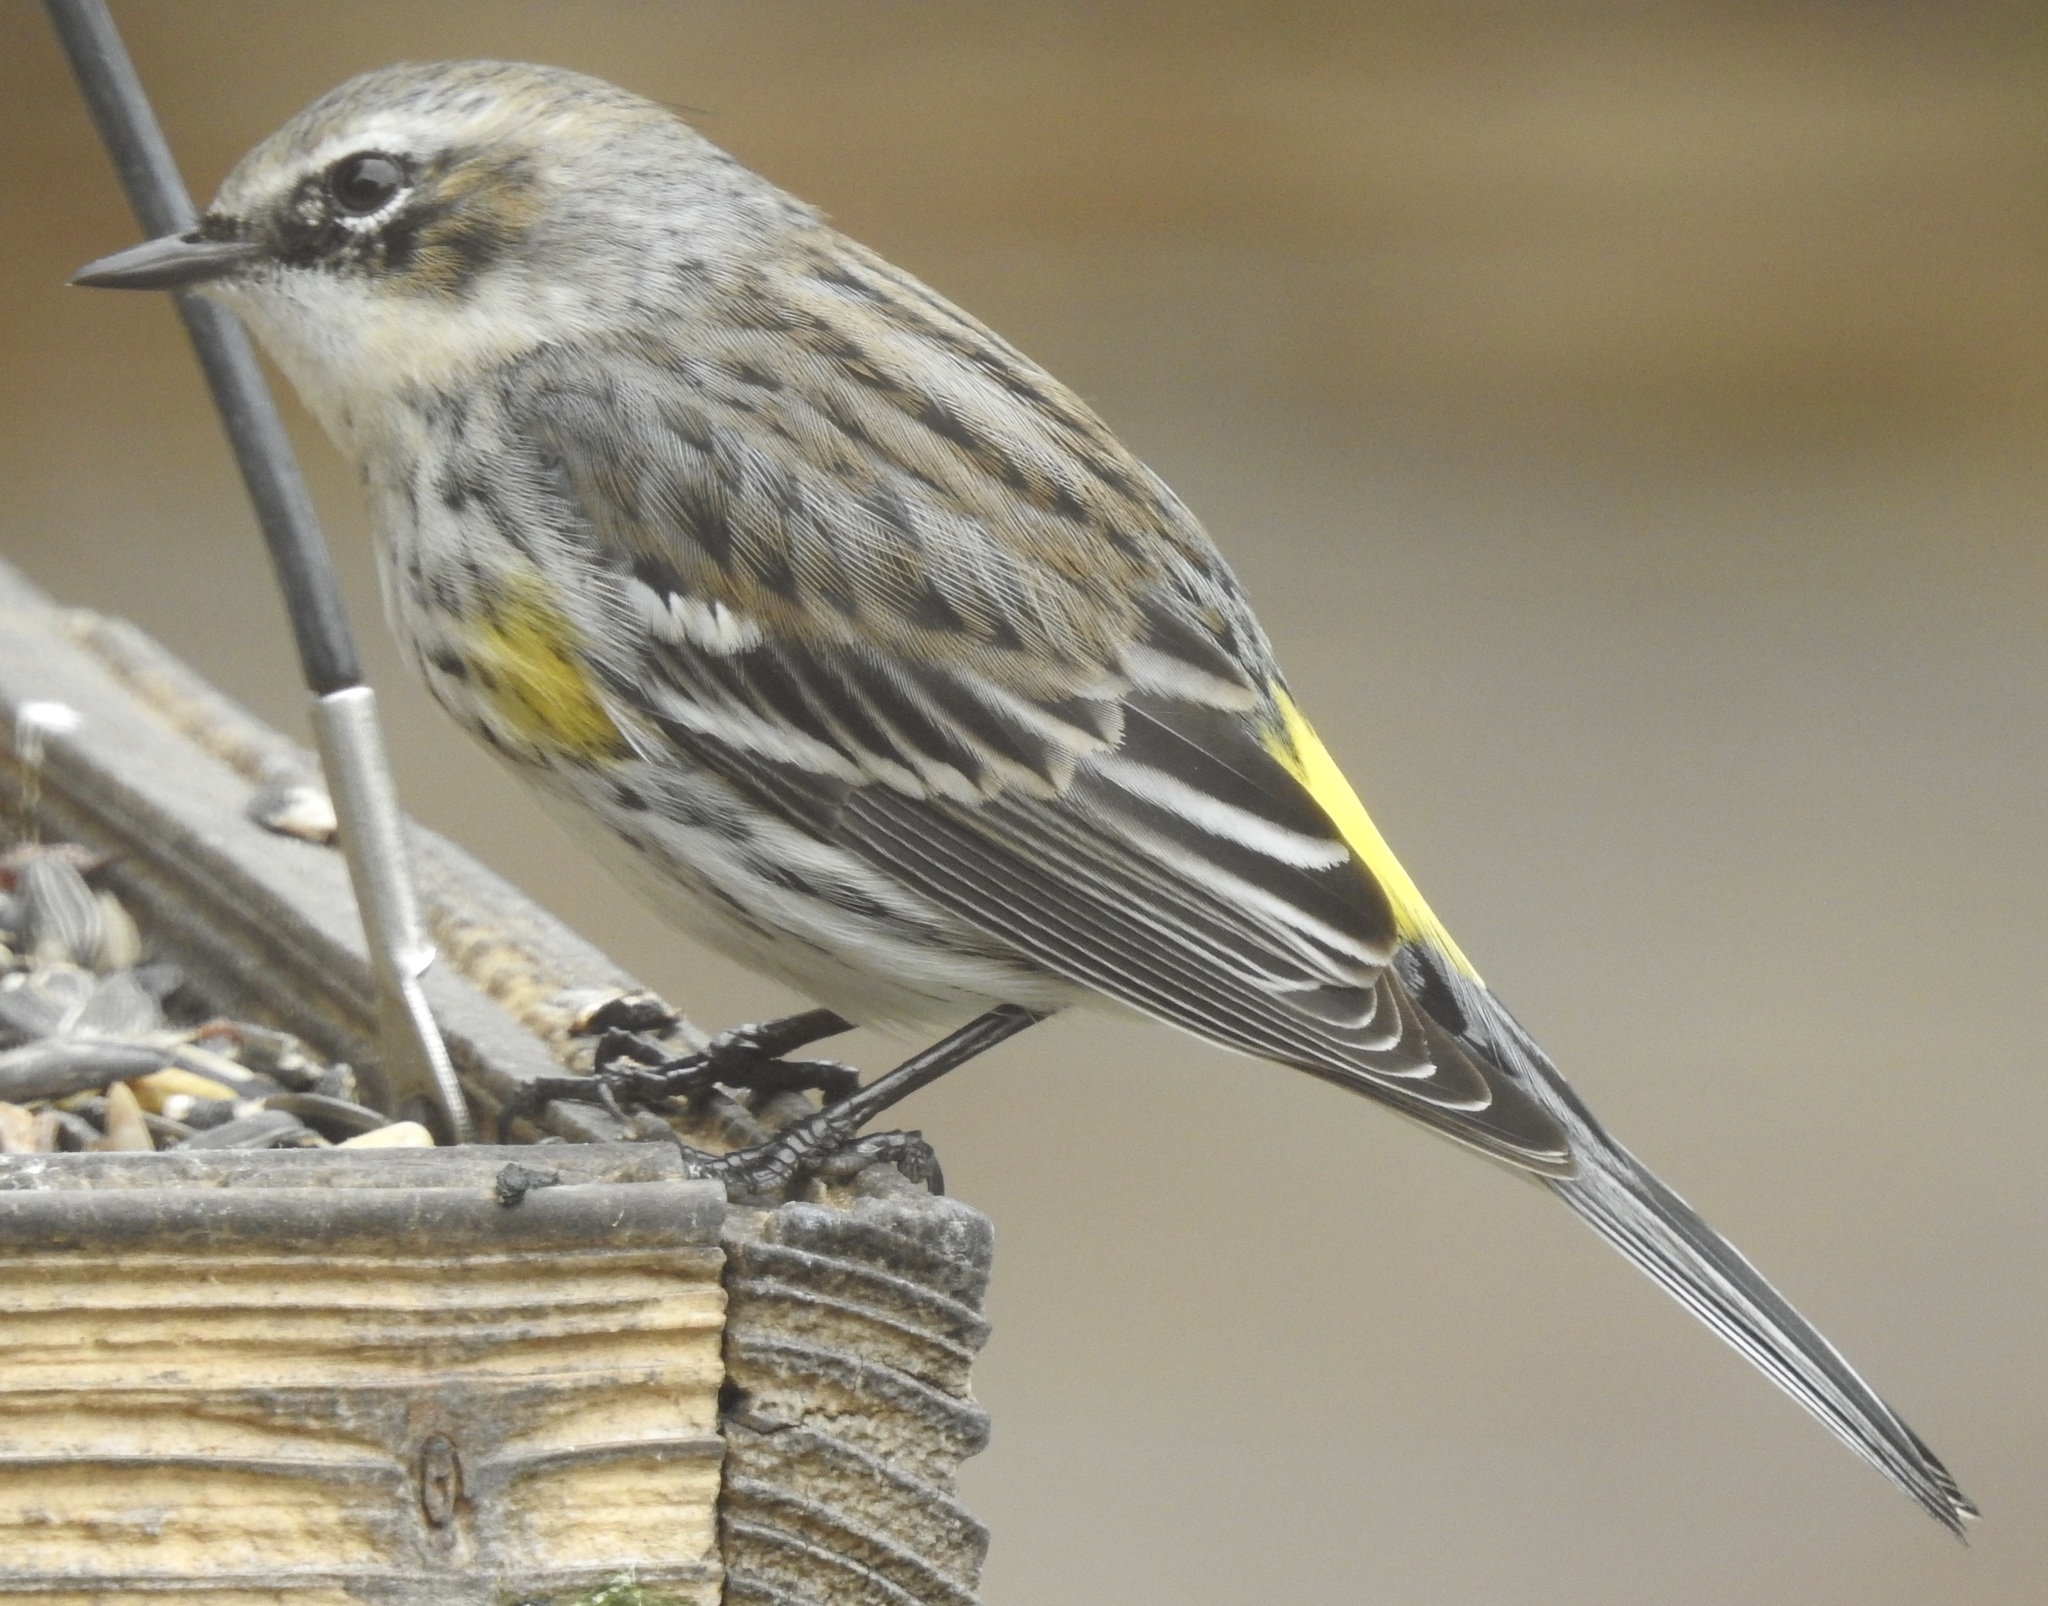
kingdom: Animalia
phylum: Chordata
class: Aves
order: Passeriformes
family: Parulidae
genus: Setophaga
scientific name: Setophaga coronata
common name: Myrtle warbler
